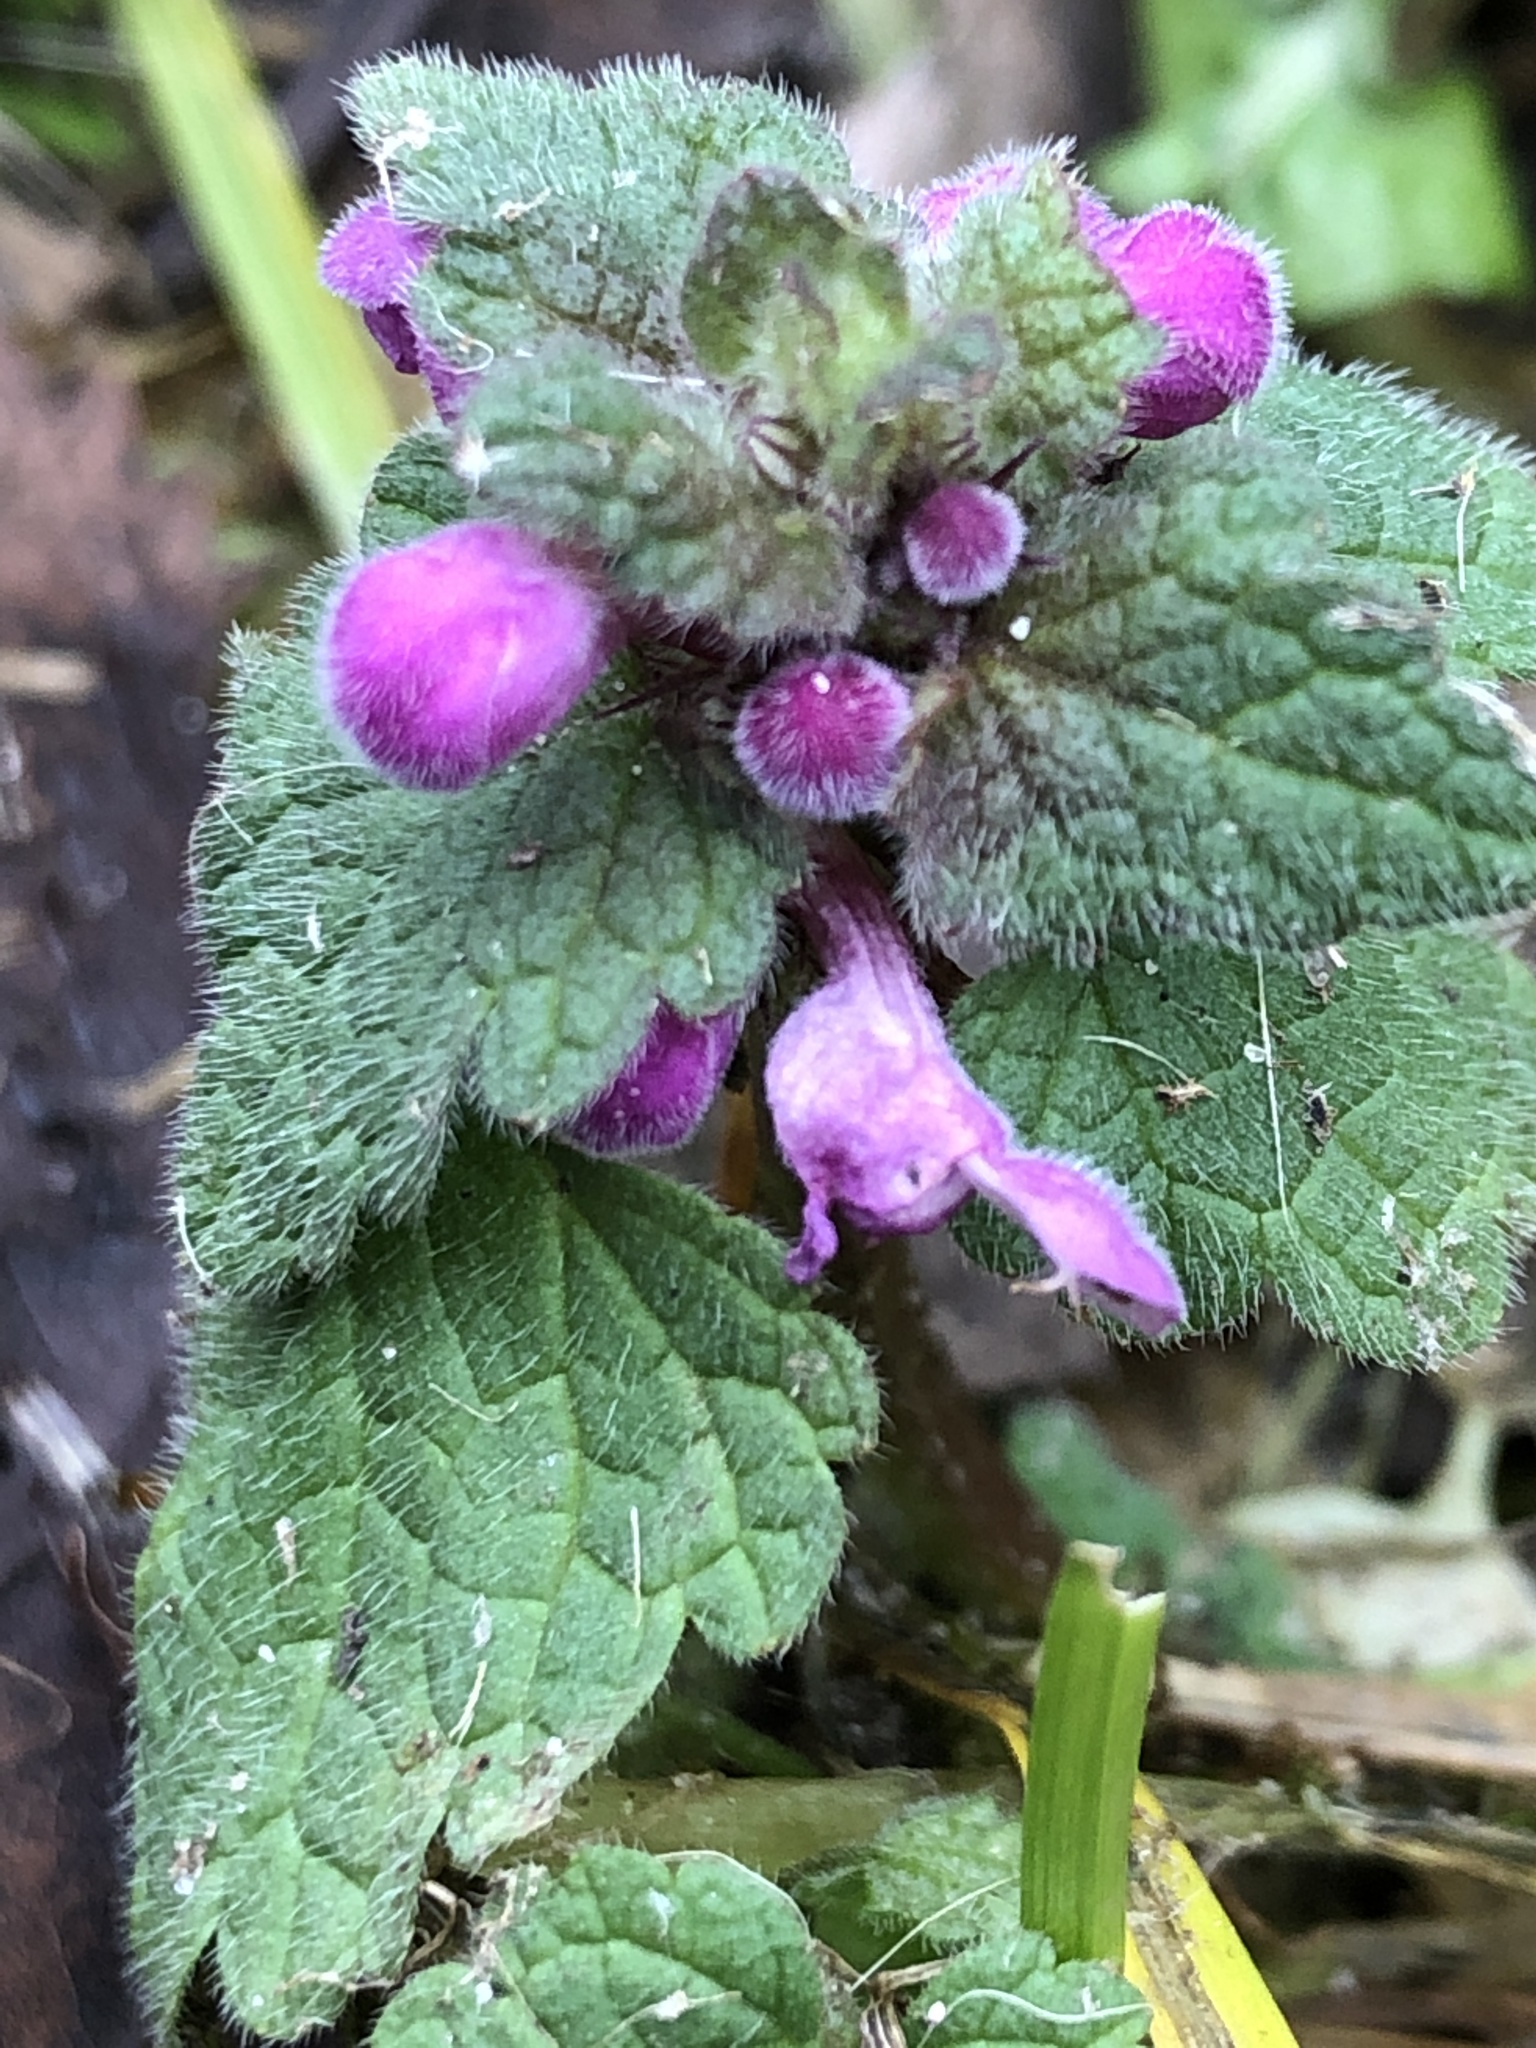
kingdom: Plantae
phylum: Tracheophyta
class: Magnoliopsida
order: Lamiales
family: Lamiaceae
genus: Lamium
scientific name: Lamium purpureum
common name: Red dead-nettle
